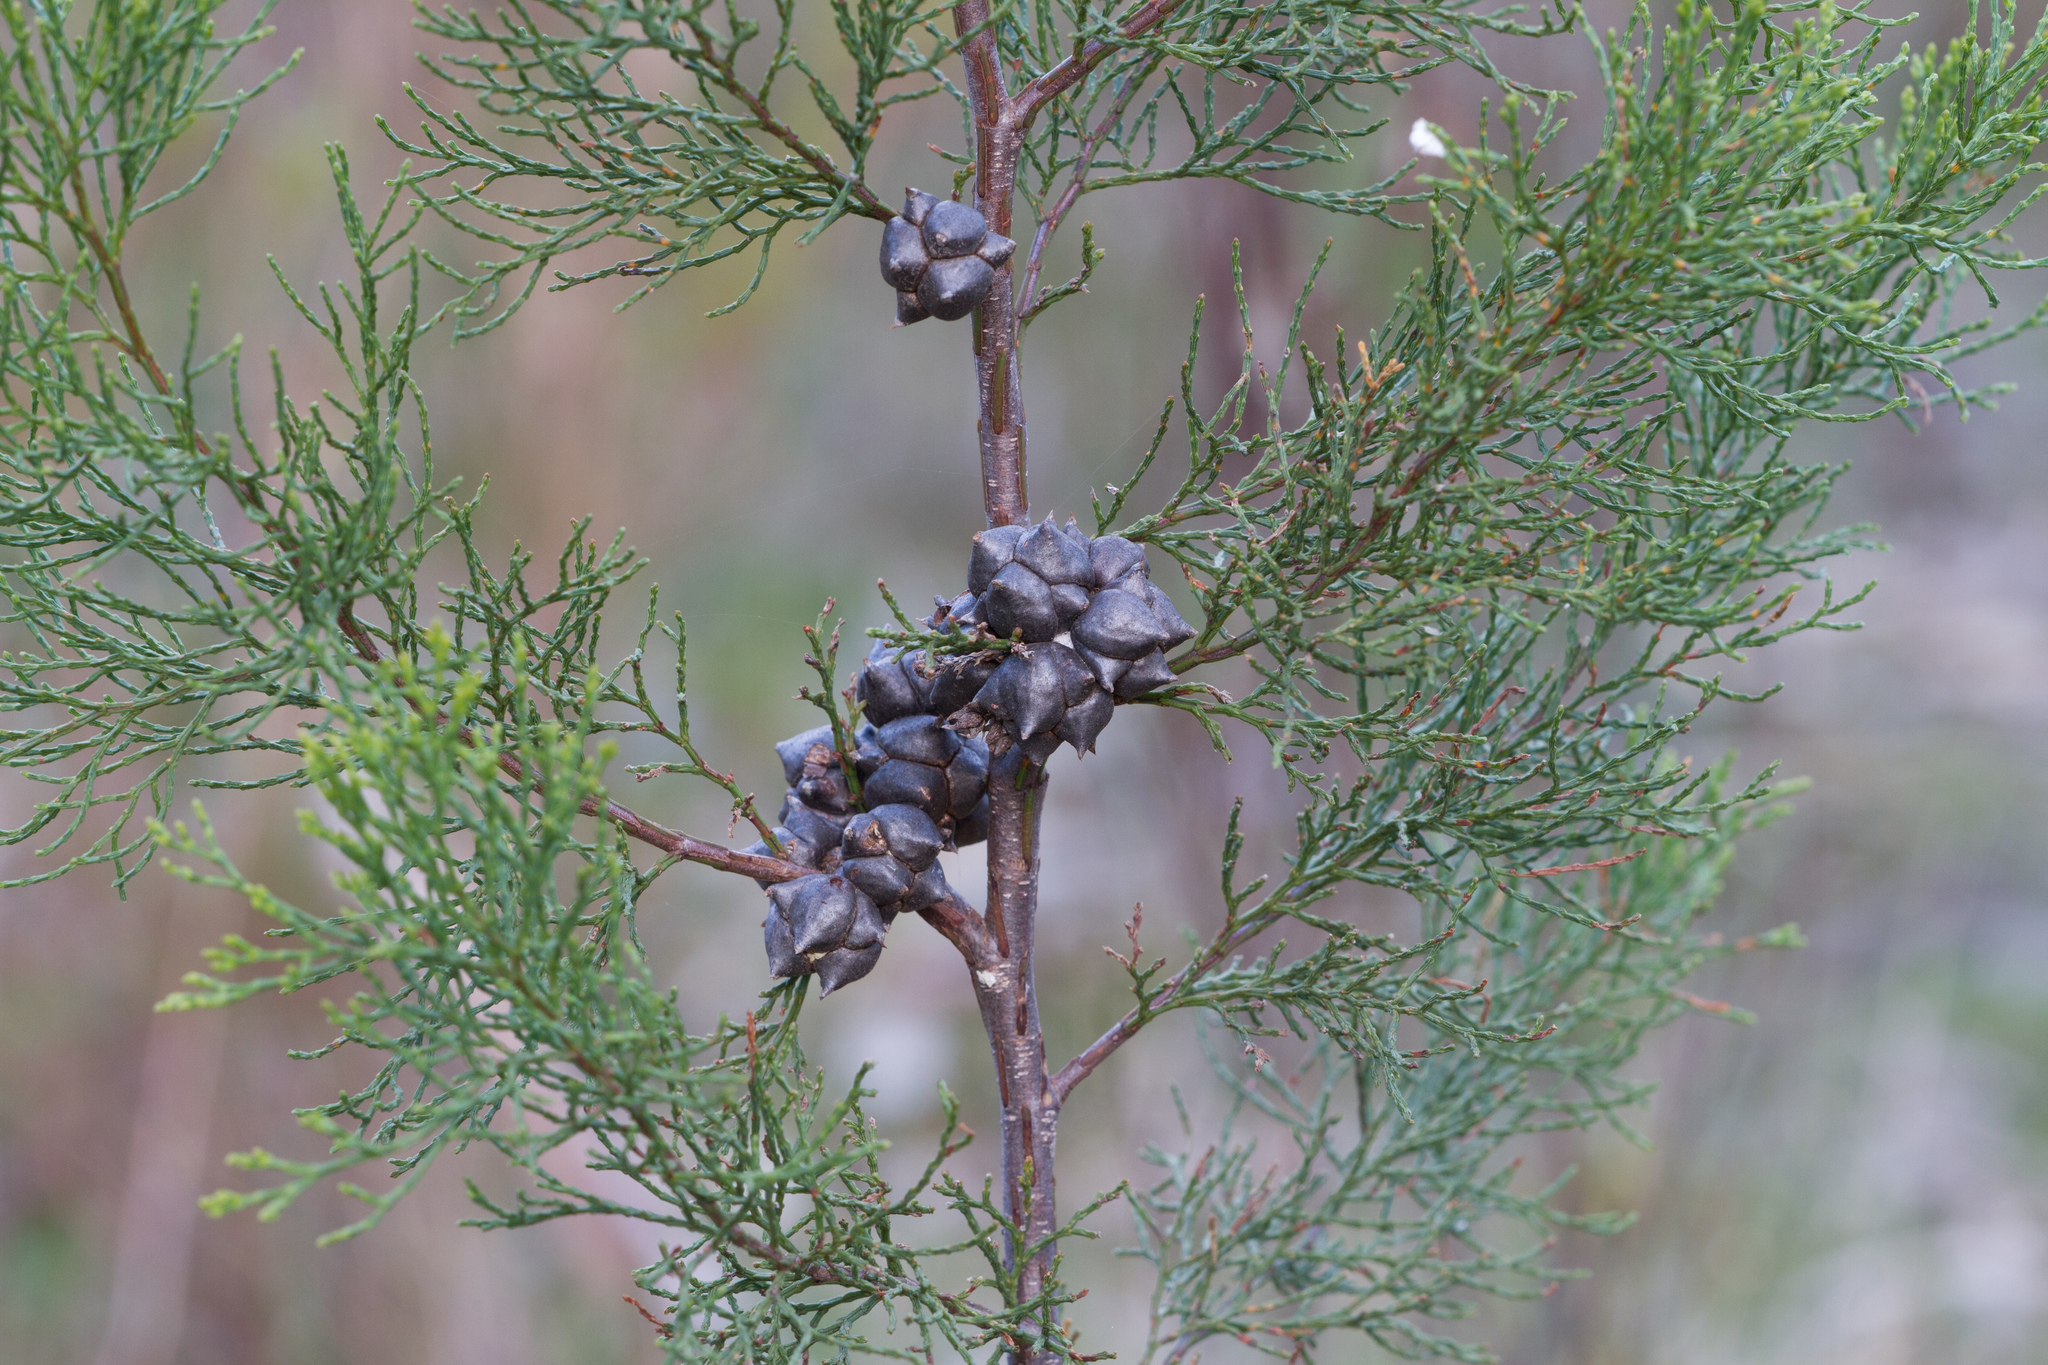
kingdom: Plantae
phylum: Tracheophyta
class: Pinopsida
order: Pinales
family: Cupressaceae
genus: Callitris
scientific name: Callitris rhomboidea
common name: Illawara mountain pine
